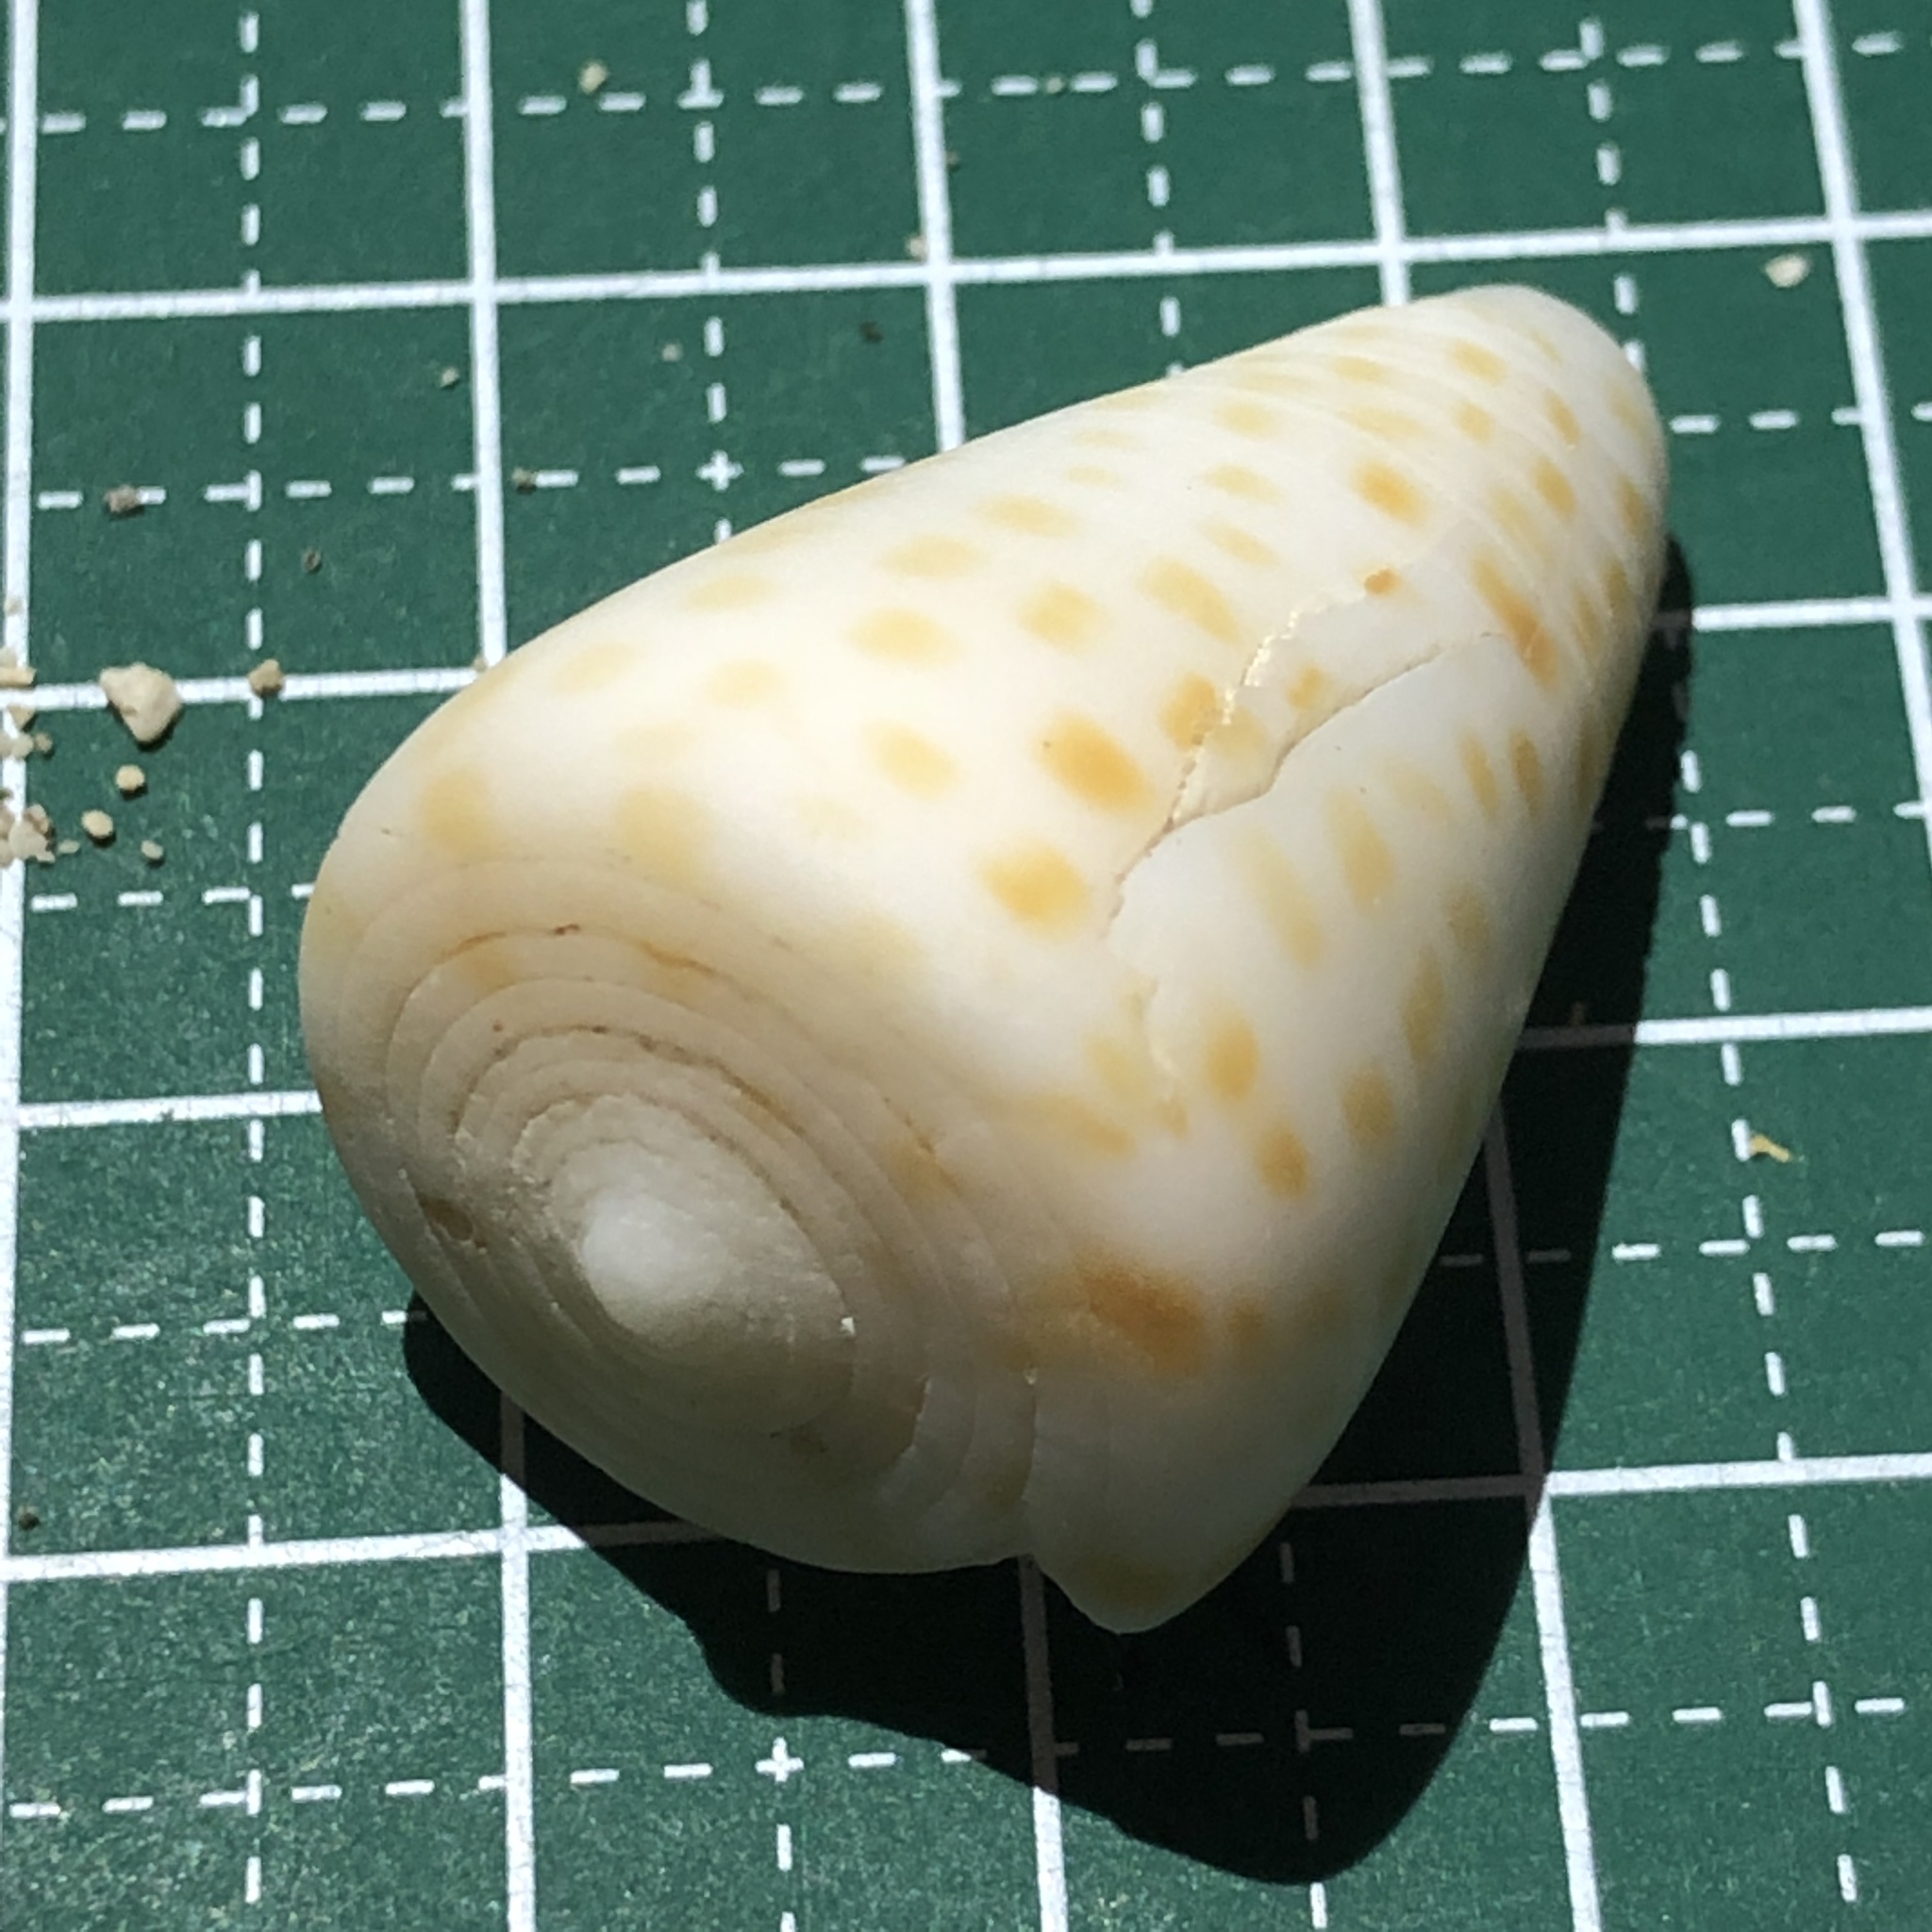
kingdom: Animalia
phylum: Mollusca
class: Gastropoda
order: Neogastropoda
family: Conidae
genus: Conus
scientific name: Conus eburneus
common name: Ivory cone
